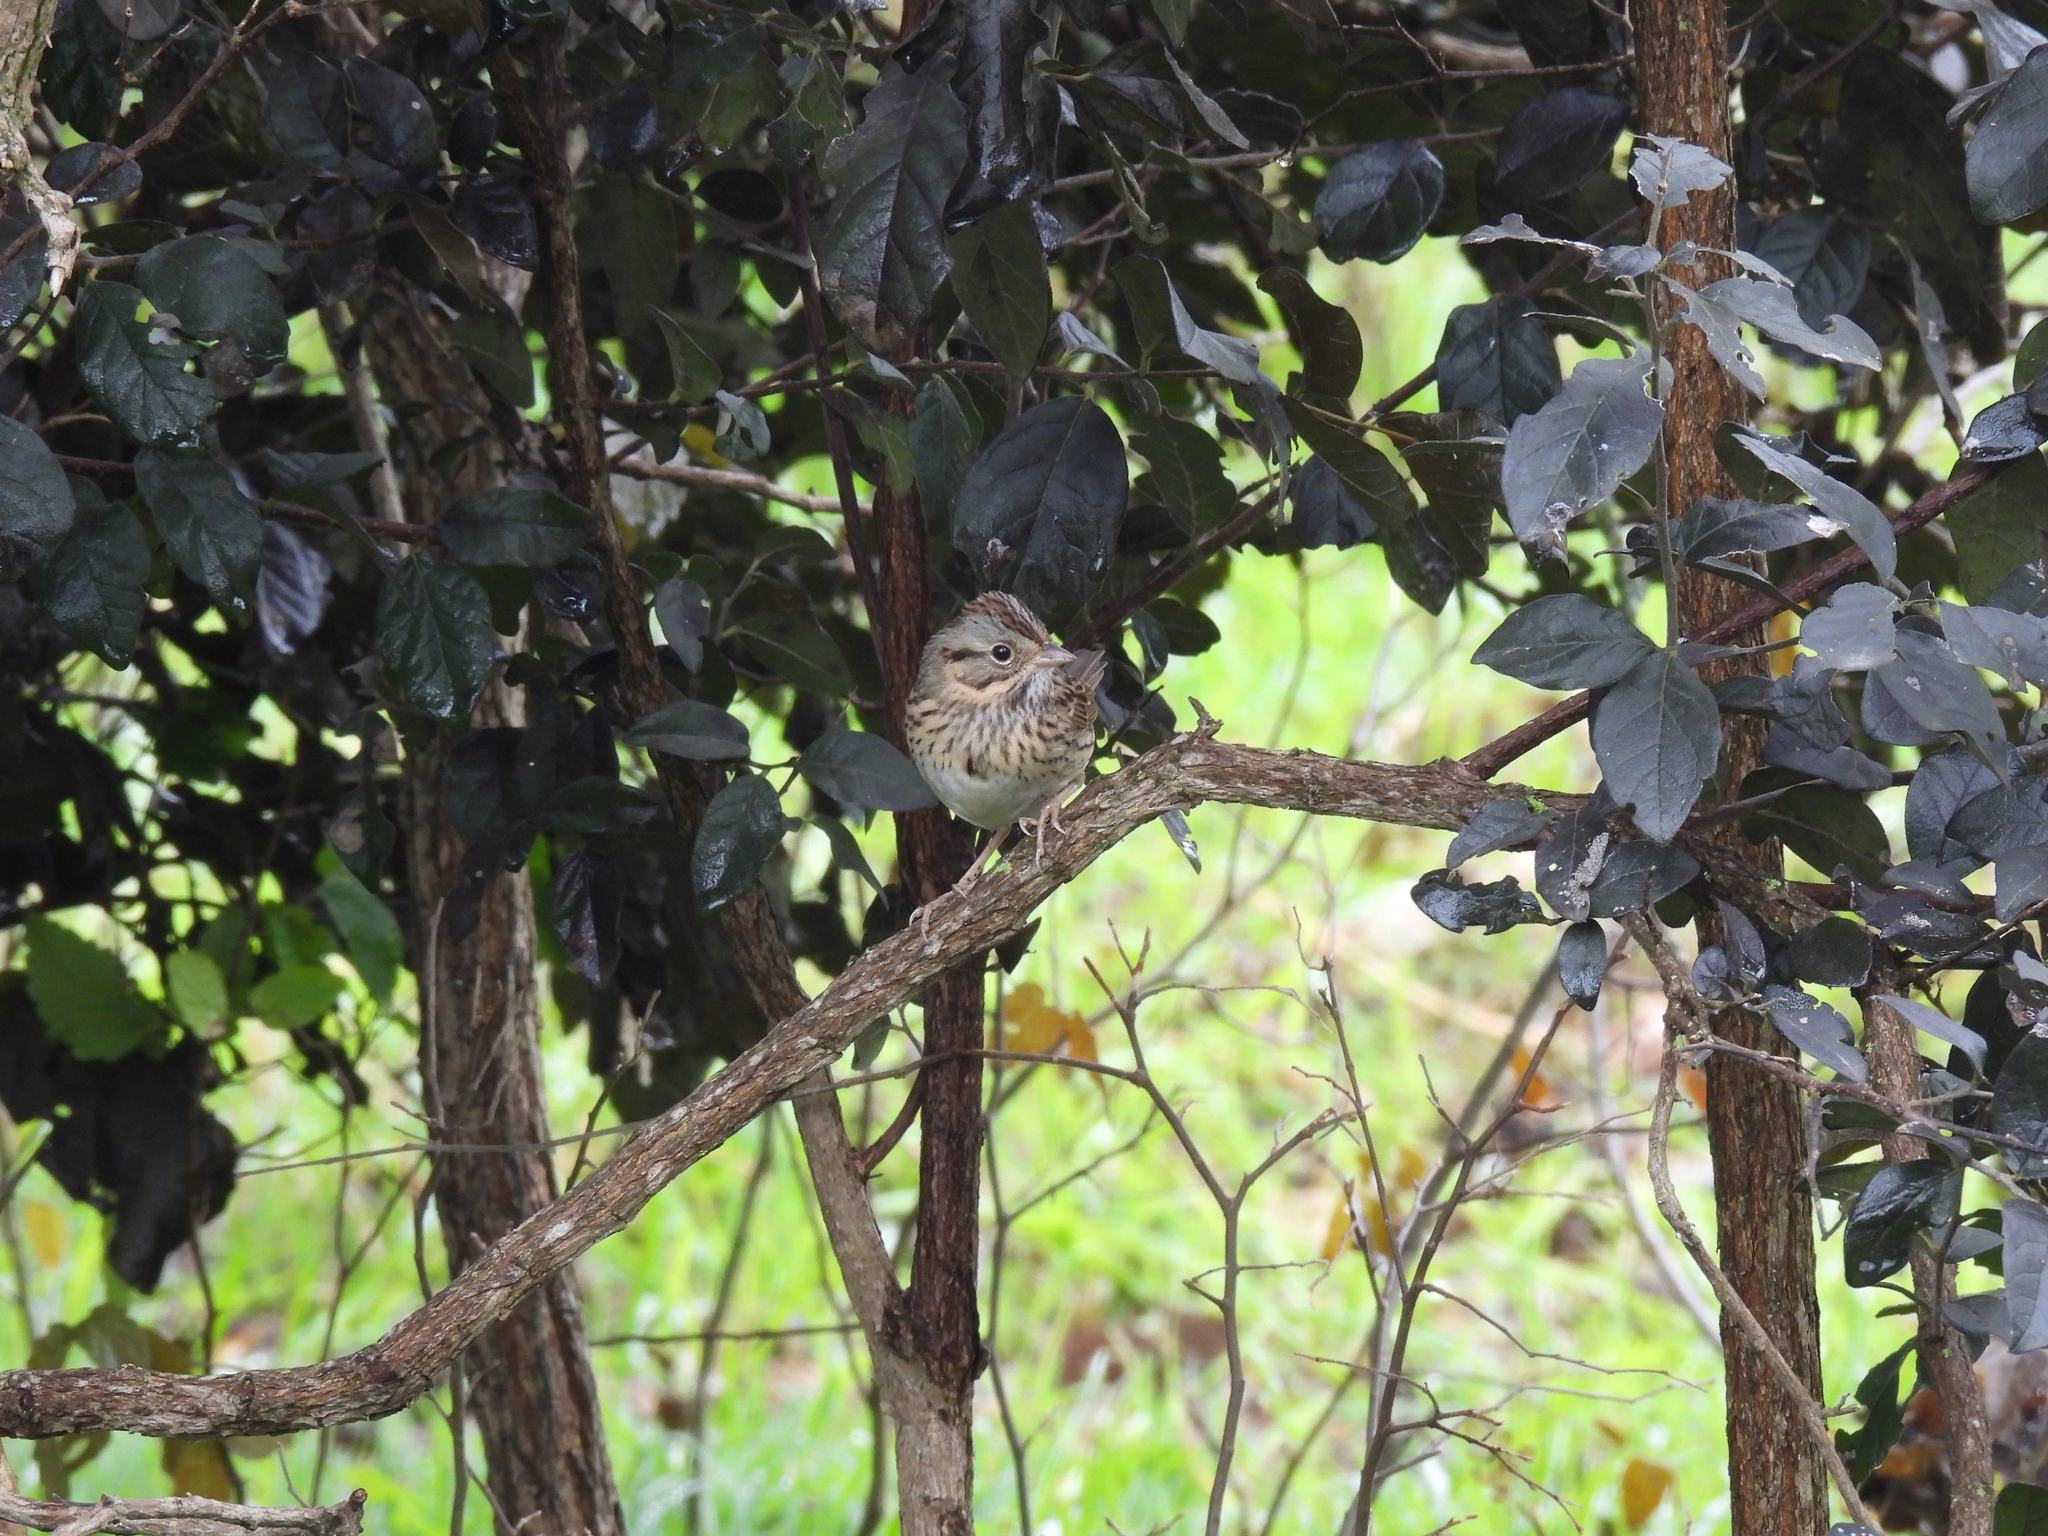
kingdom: Animalia
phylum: Chordata
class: Aves
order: Passeriformes
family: Passerellidae
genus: Melospiza
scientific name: Melospiza lincolnii
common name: Lincoln's sparrow
